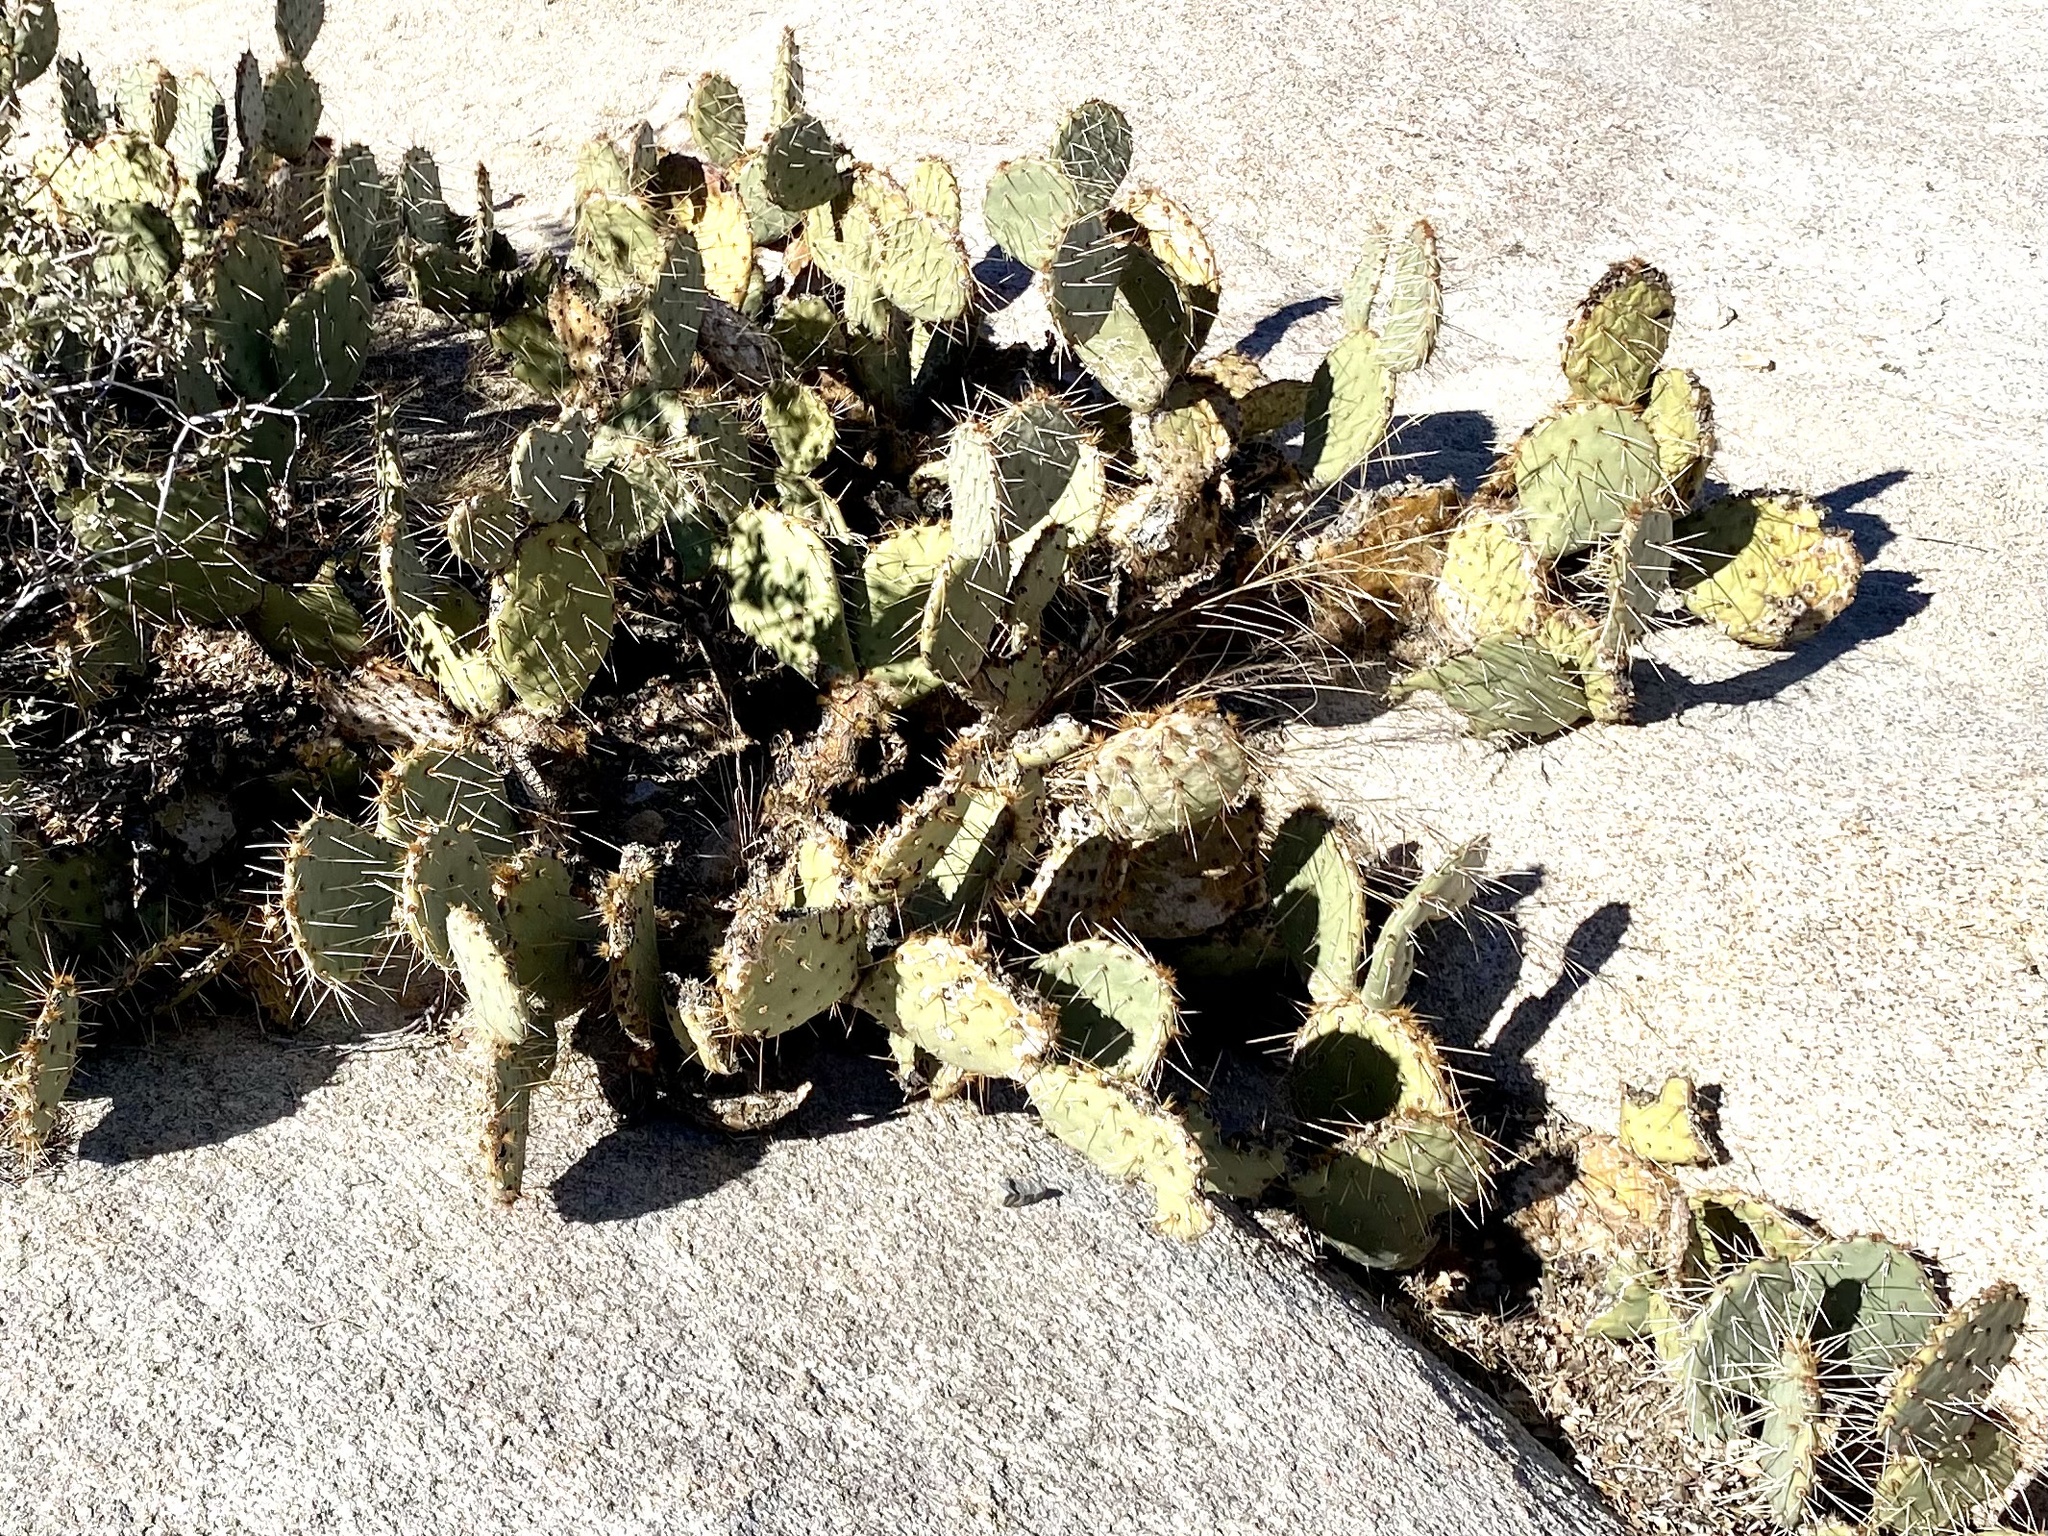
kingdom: Plantae
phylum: Tracheophyta
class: Magnoliopsida
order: Caryophyllales
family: Cactaceae
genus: Opuntia
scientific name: Opuntia phaeacantha
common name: New mexico prickly-pear
